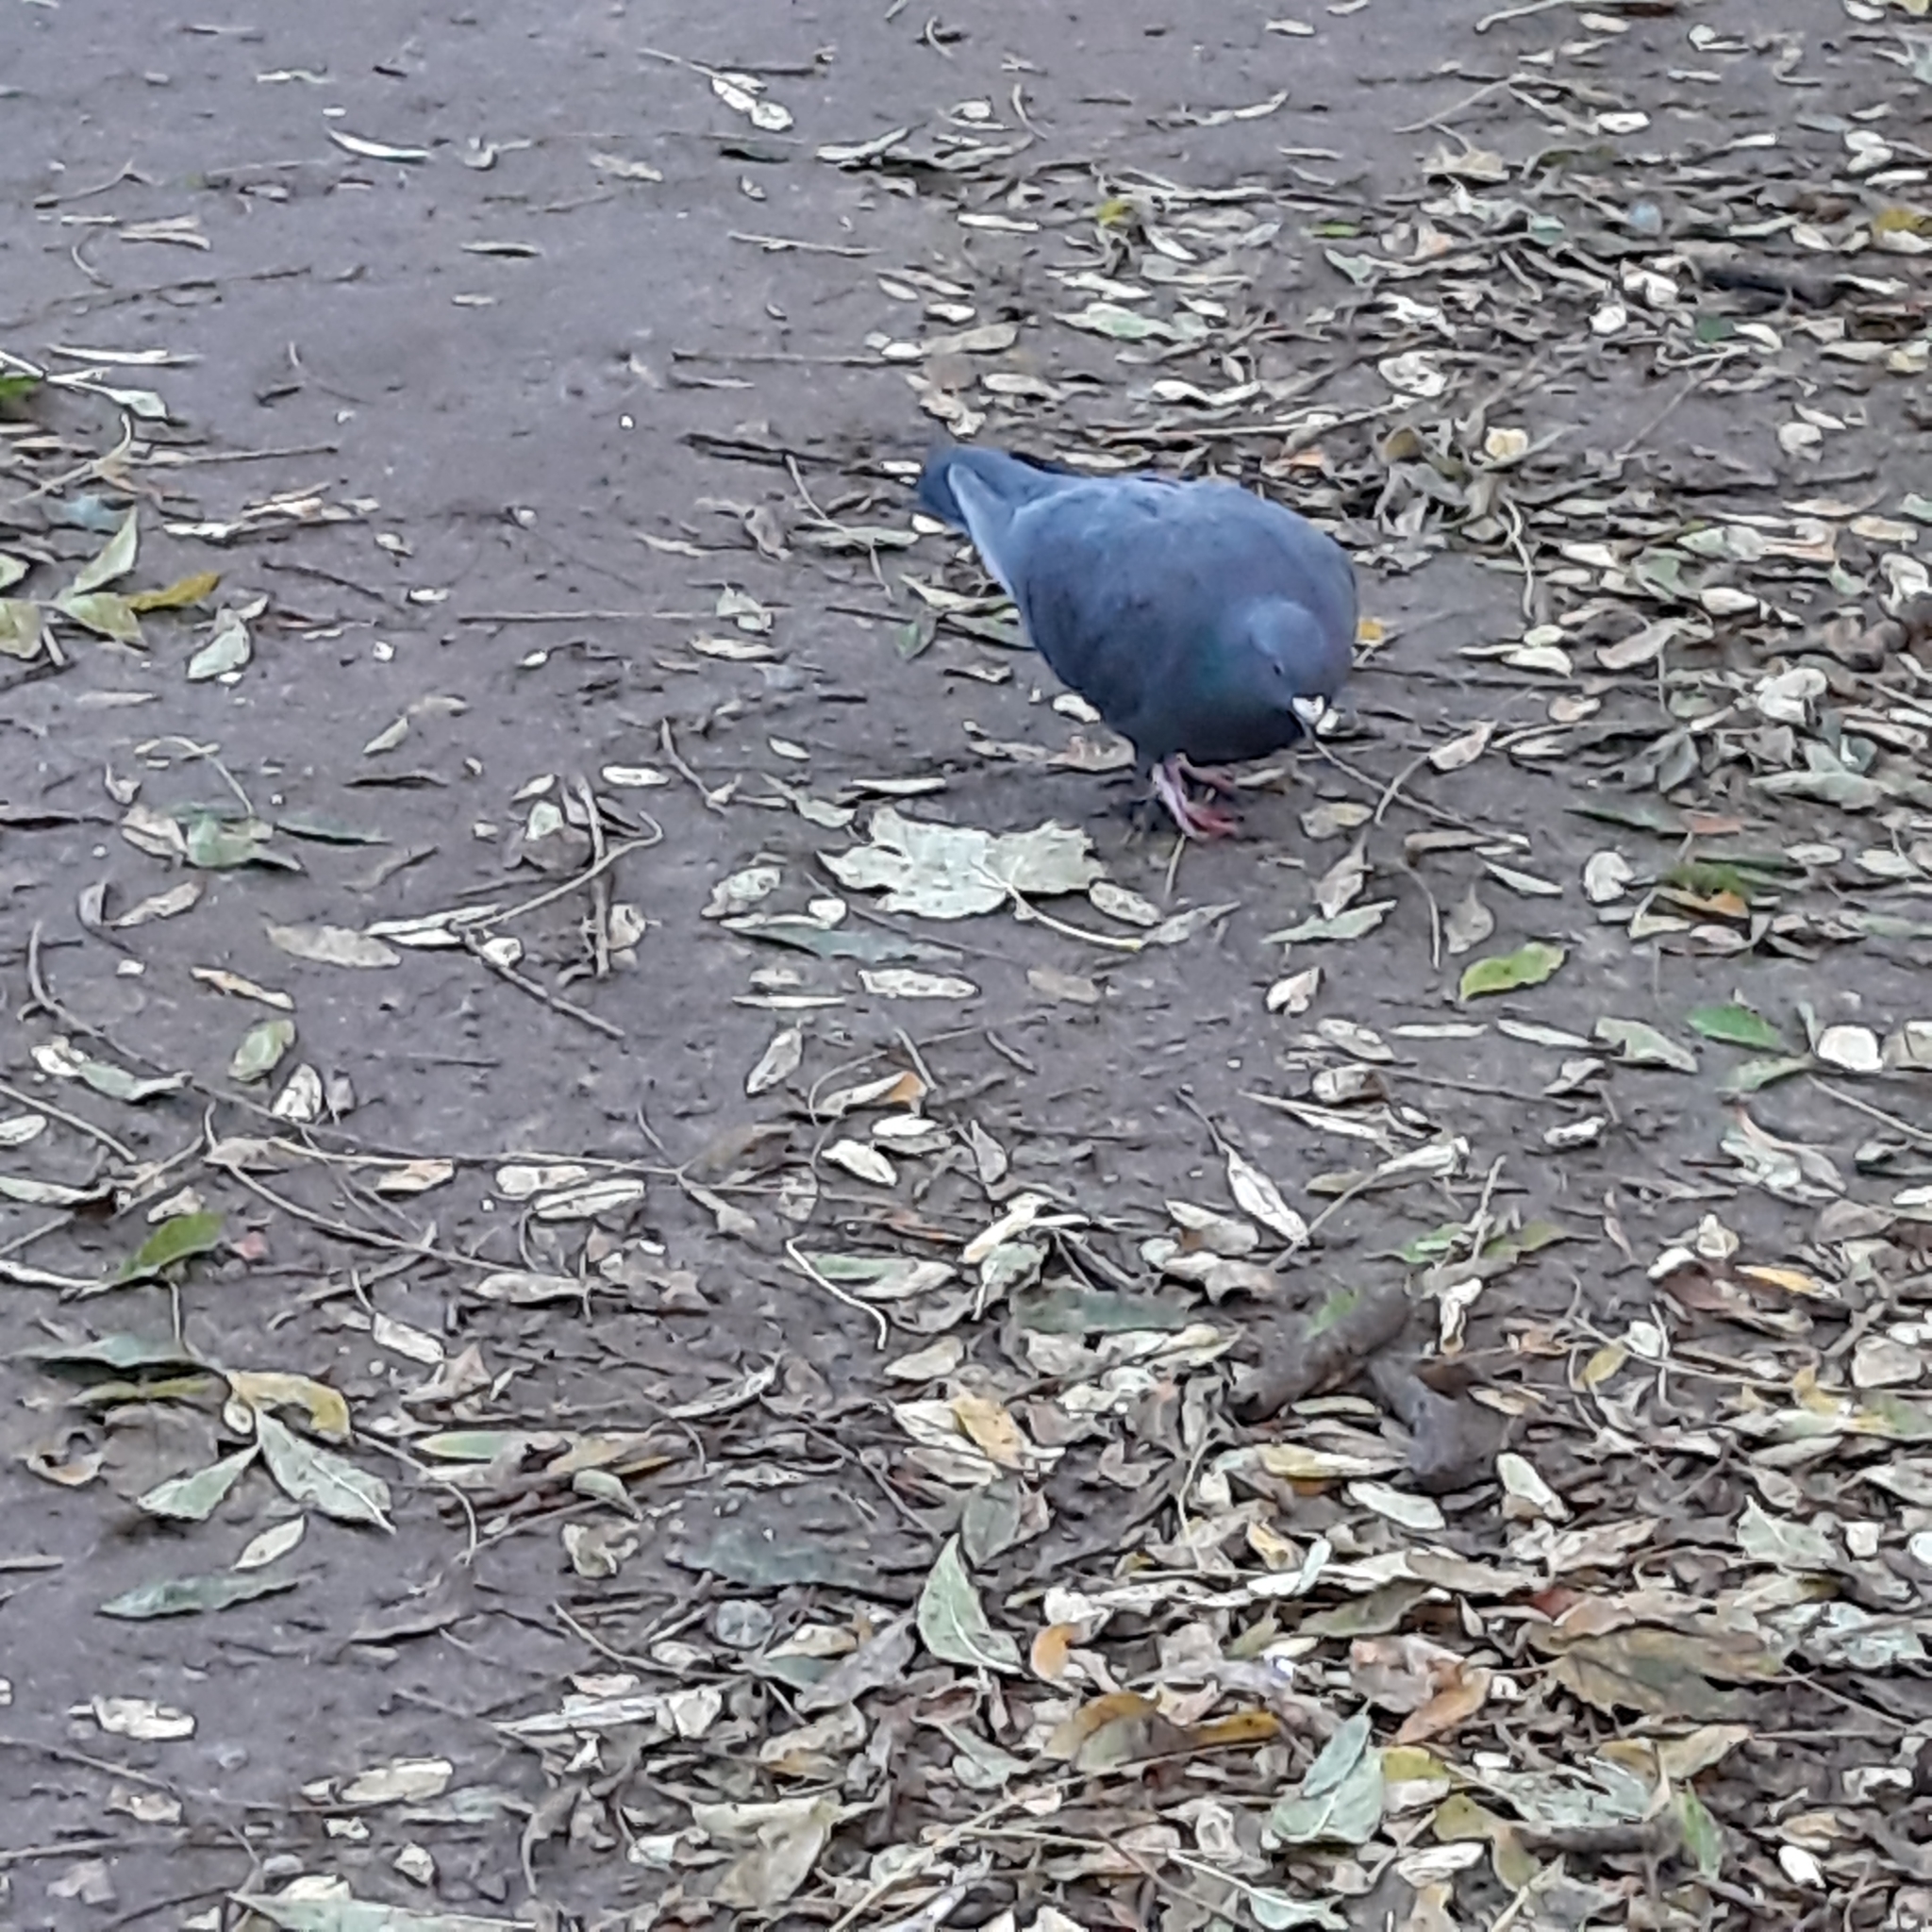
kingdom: Animalia
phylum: Chordata
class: Aves
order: Columbiformes
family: Columbidae
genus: Columba
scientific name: Columba livia
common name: Rock pigeon
